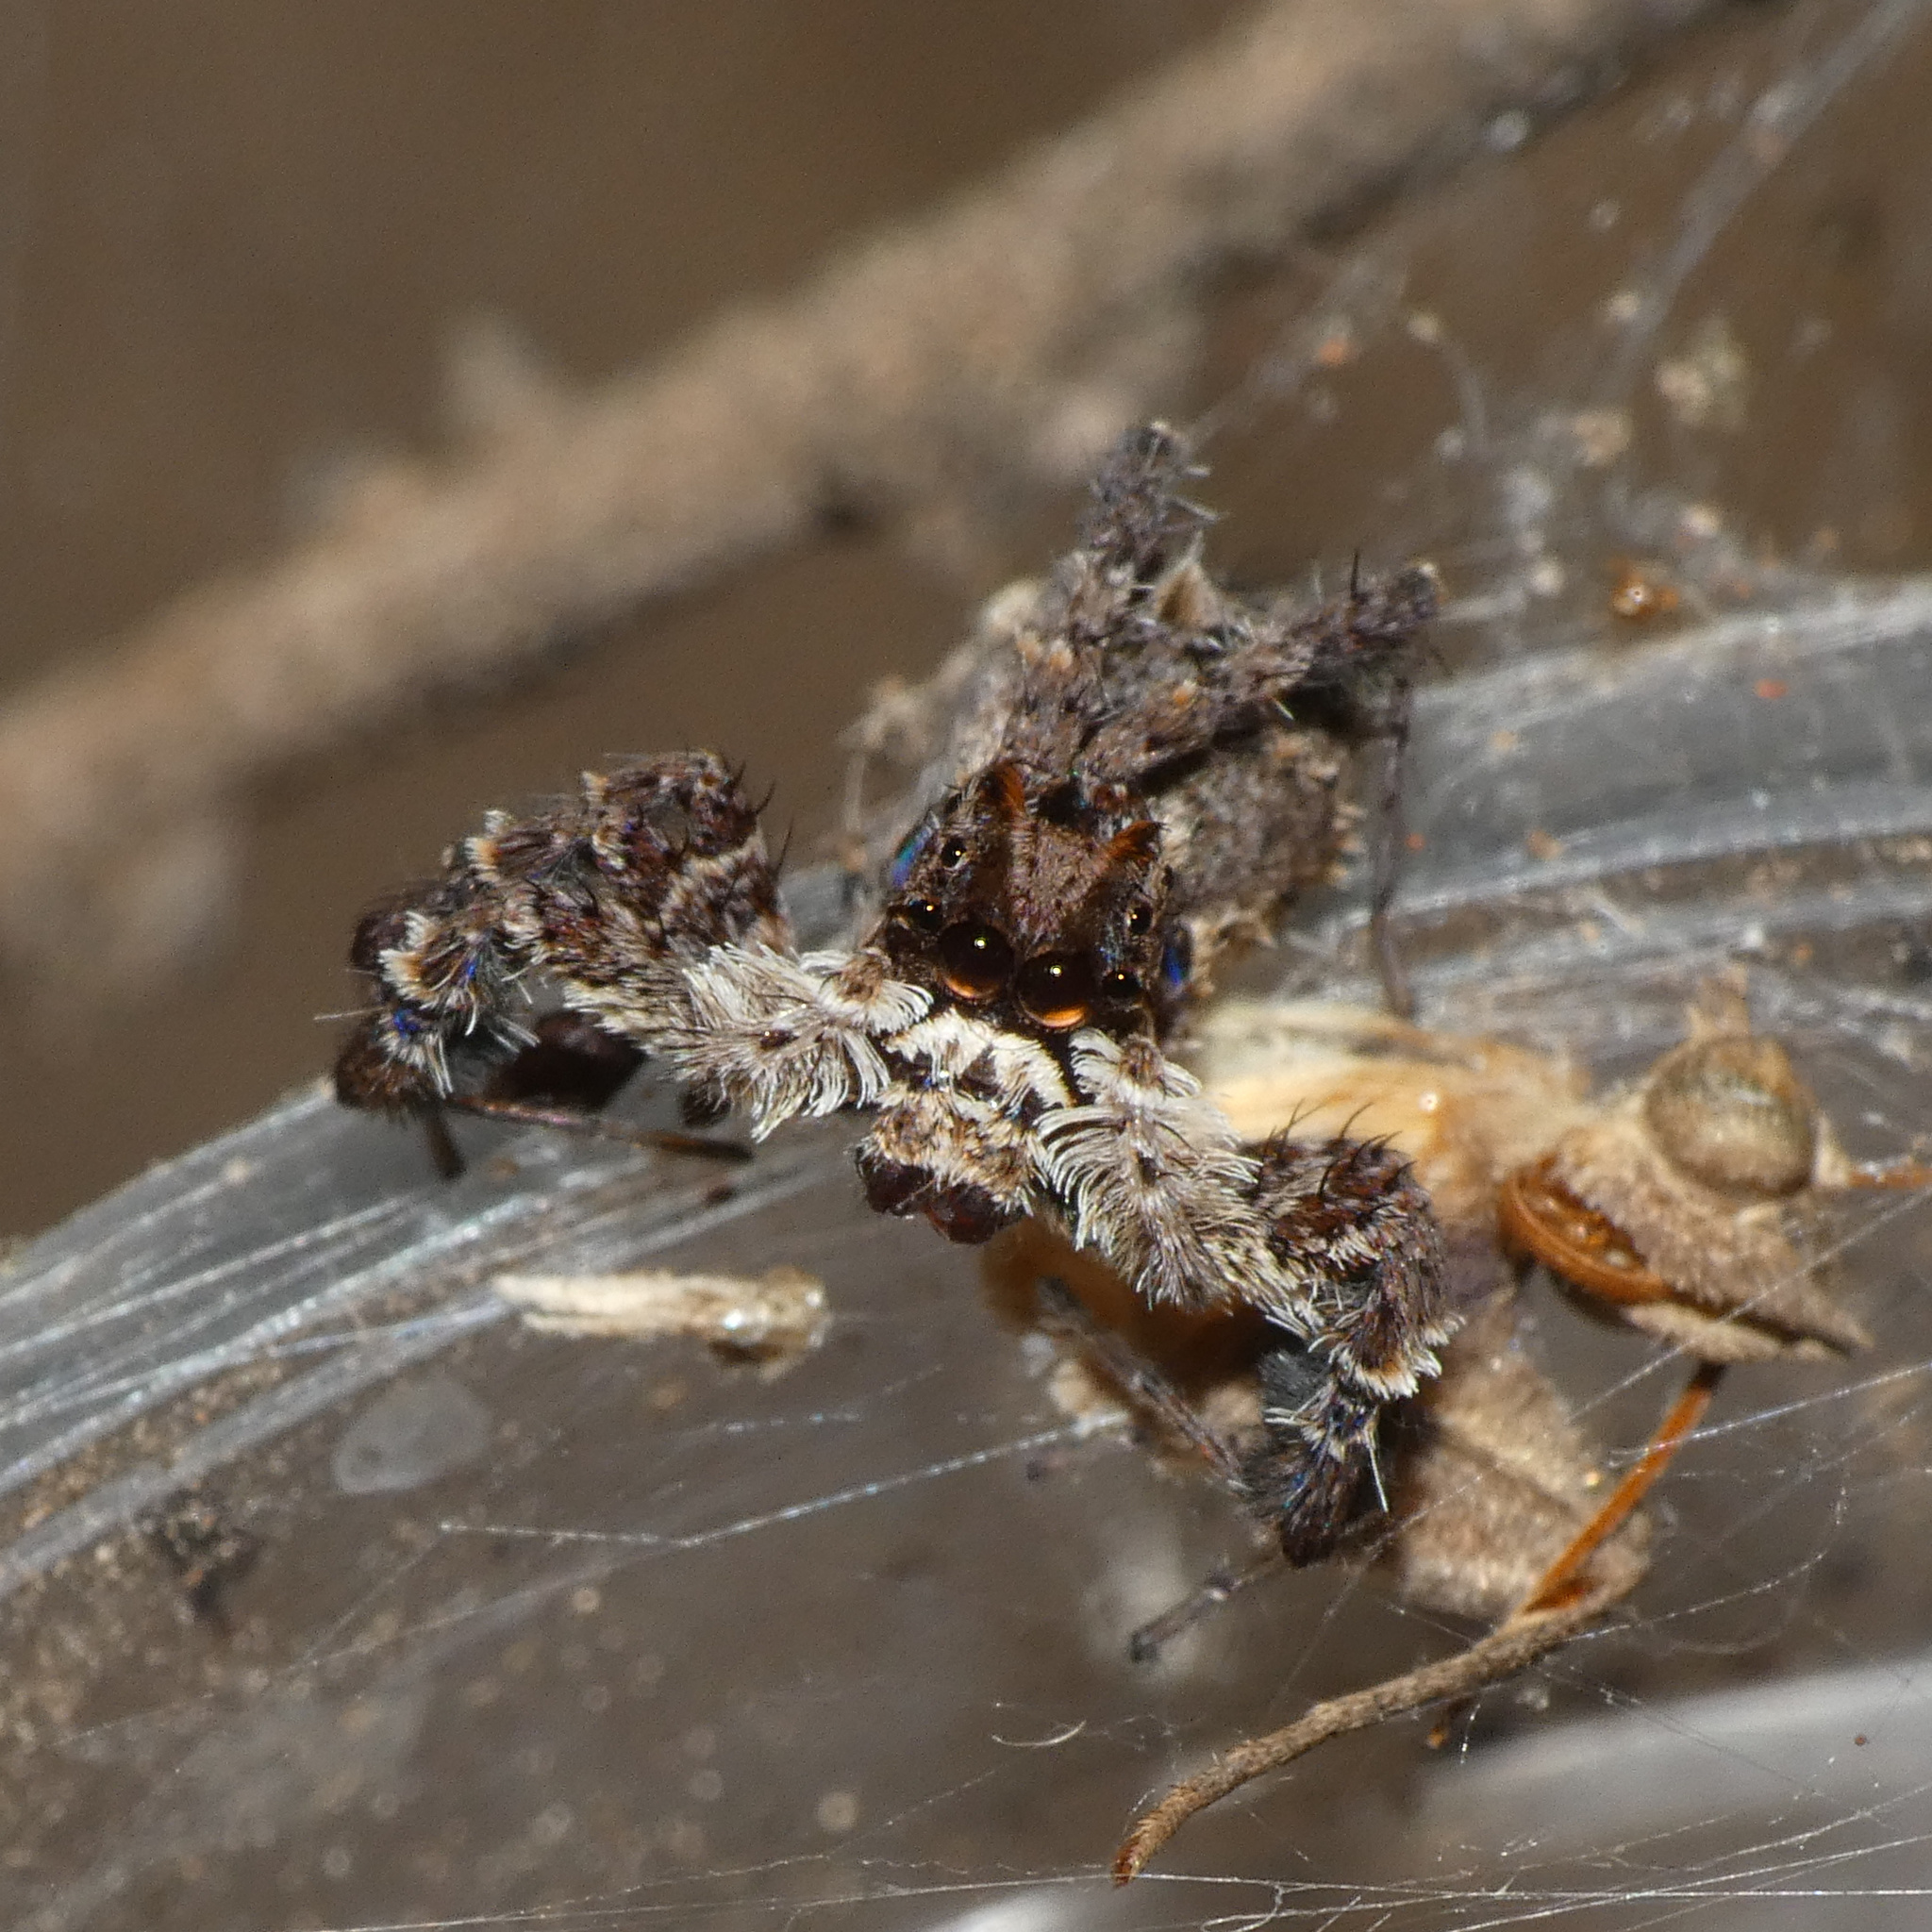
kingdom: Animalia
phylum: Arthropoda
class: Arachnida
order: Araneae
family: Salticidae
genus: Portia
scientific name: Portia schultzi
